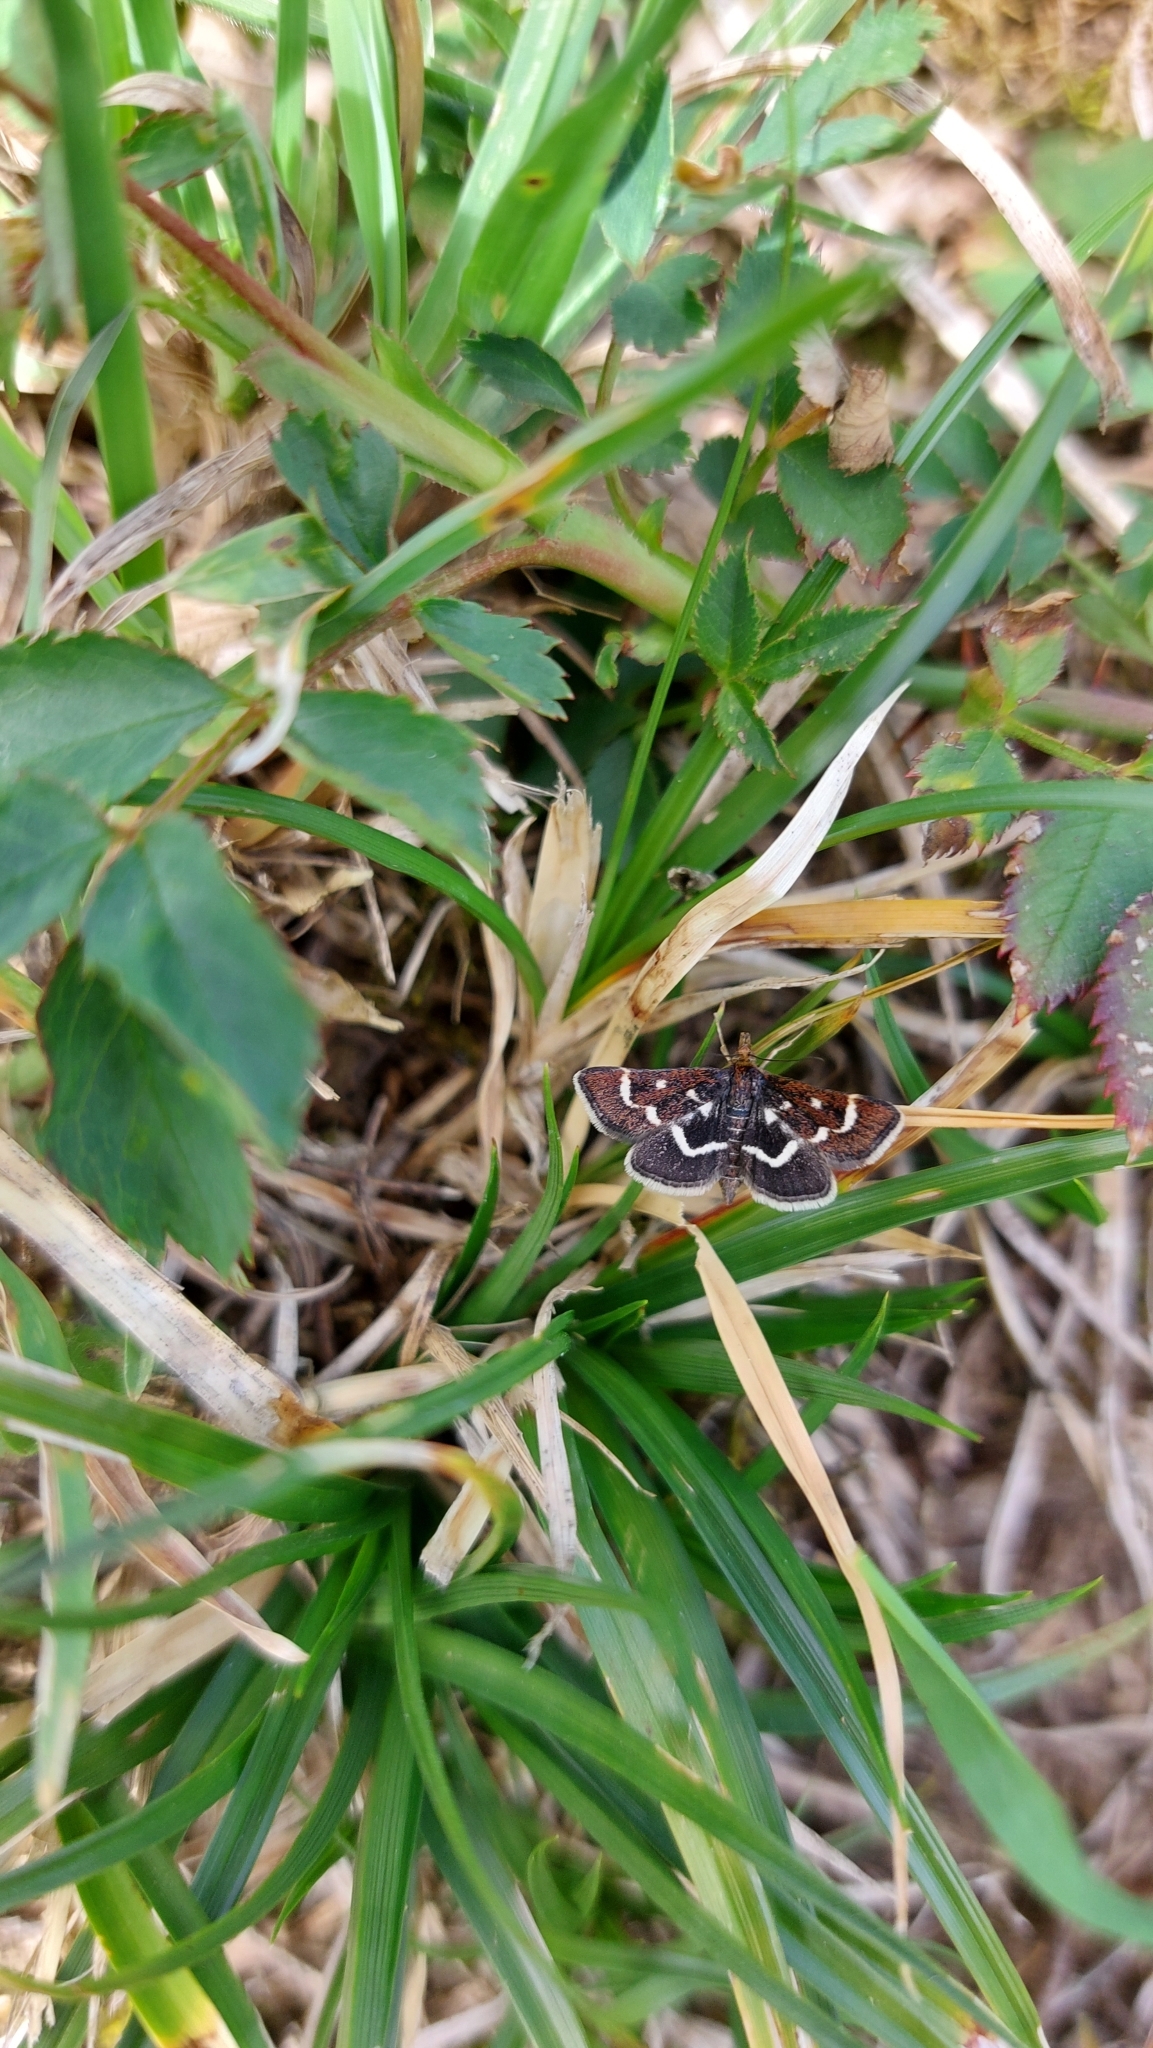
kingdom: Animalia
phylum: Arthropoda
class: Insecta
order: Lepidoptera
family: Crambidae
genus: Pyrausta
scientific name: Pyrausta nigrata
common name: Wavy-barred sable
